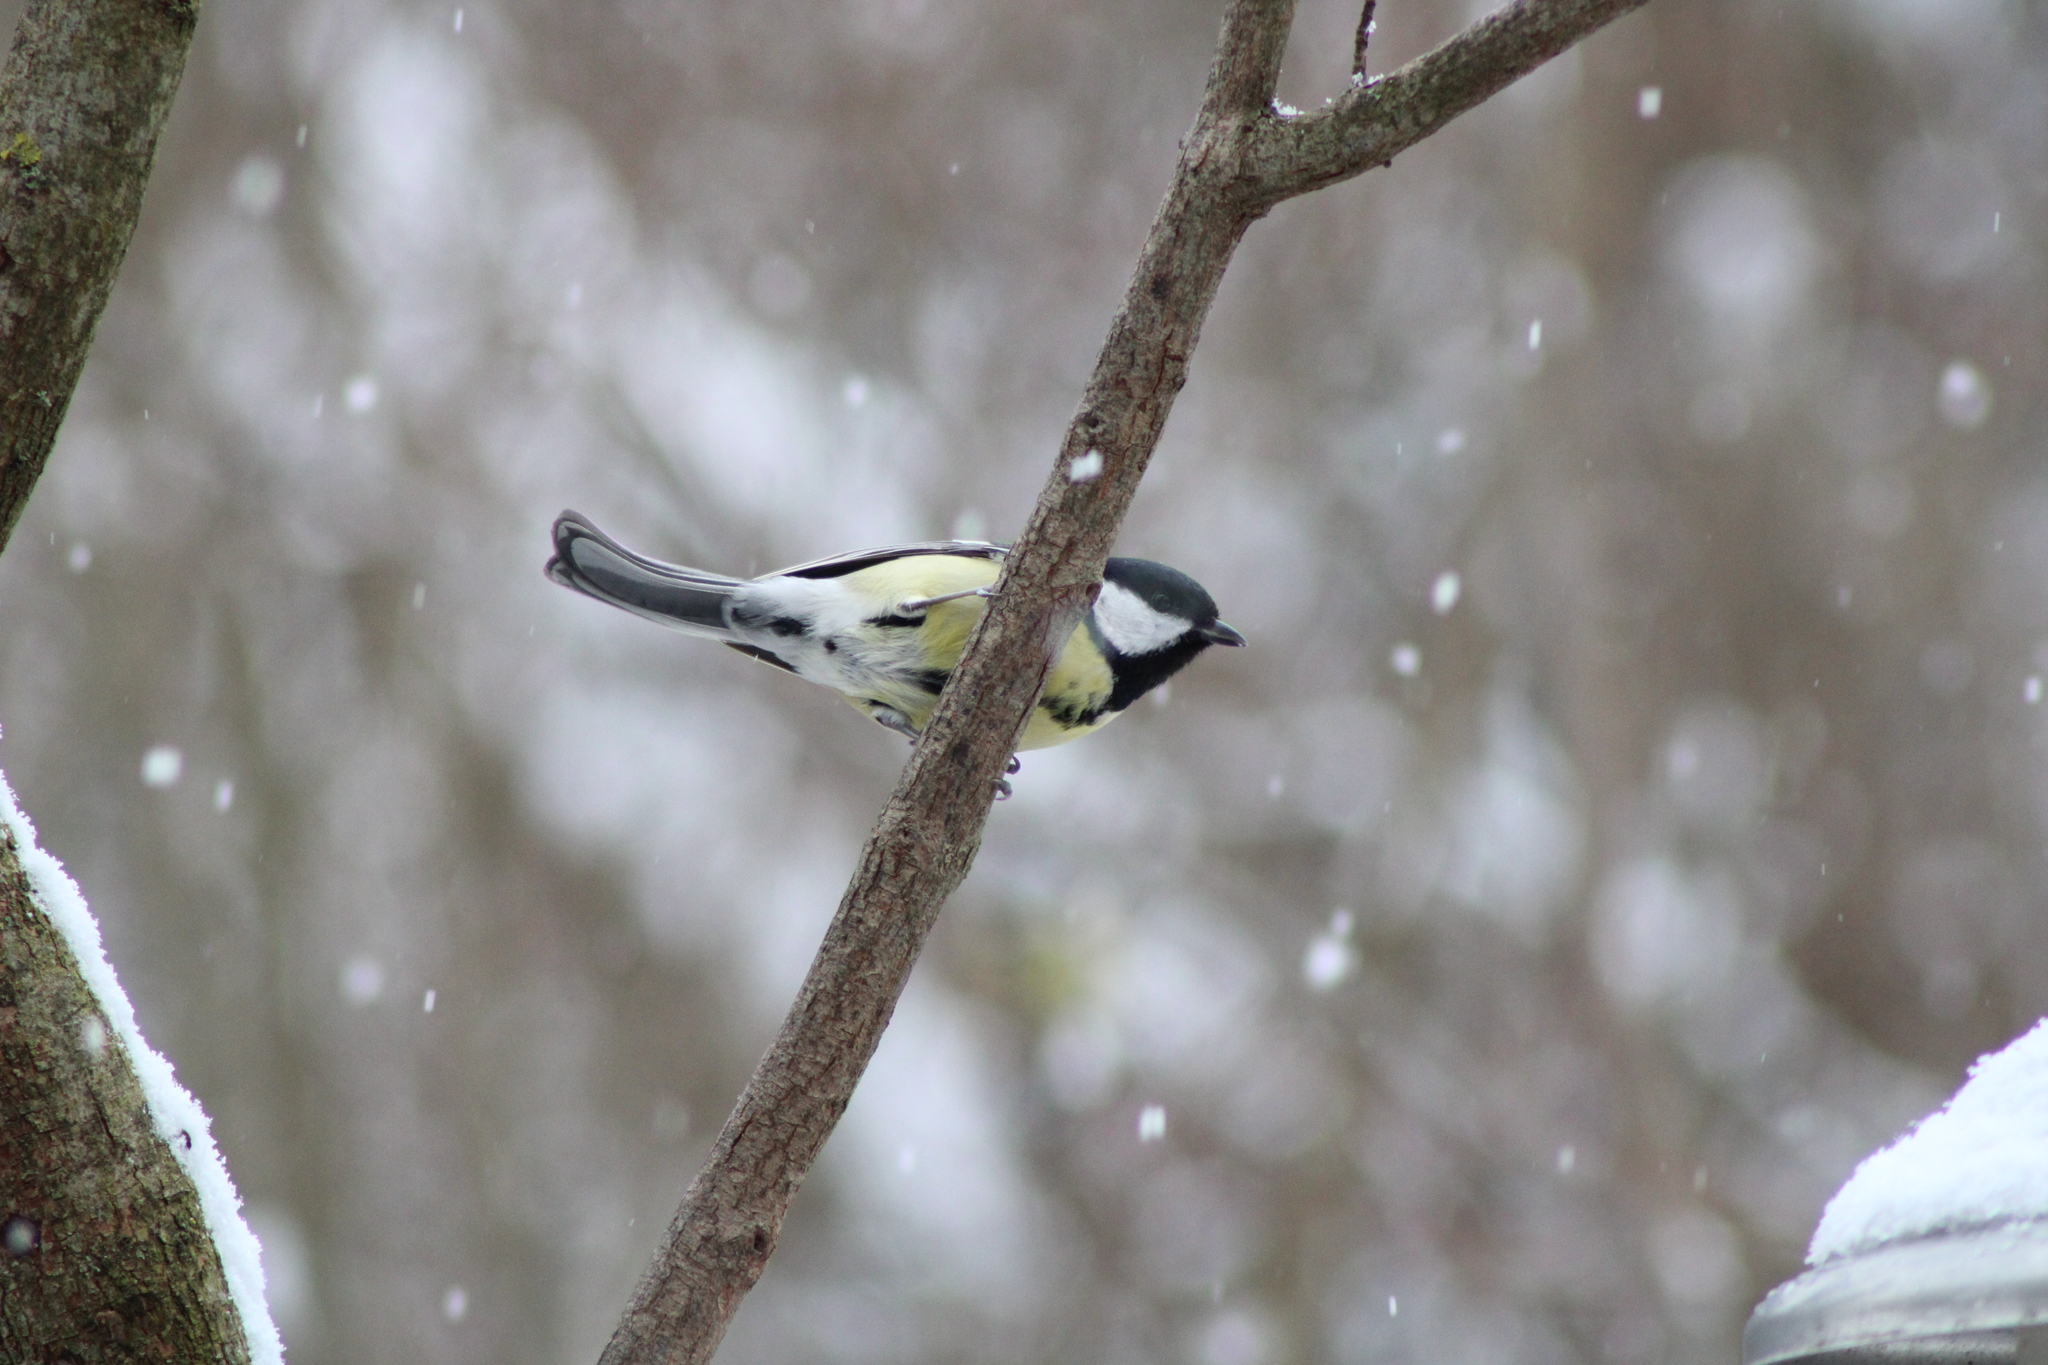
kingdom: Animalia
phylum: Chordata
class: Aves
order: Passeriformes
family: Paridae
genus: Parus
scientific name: Parus major
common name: Great tit
